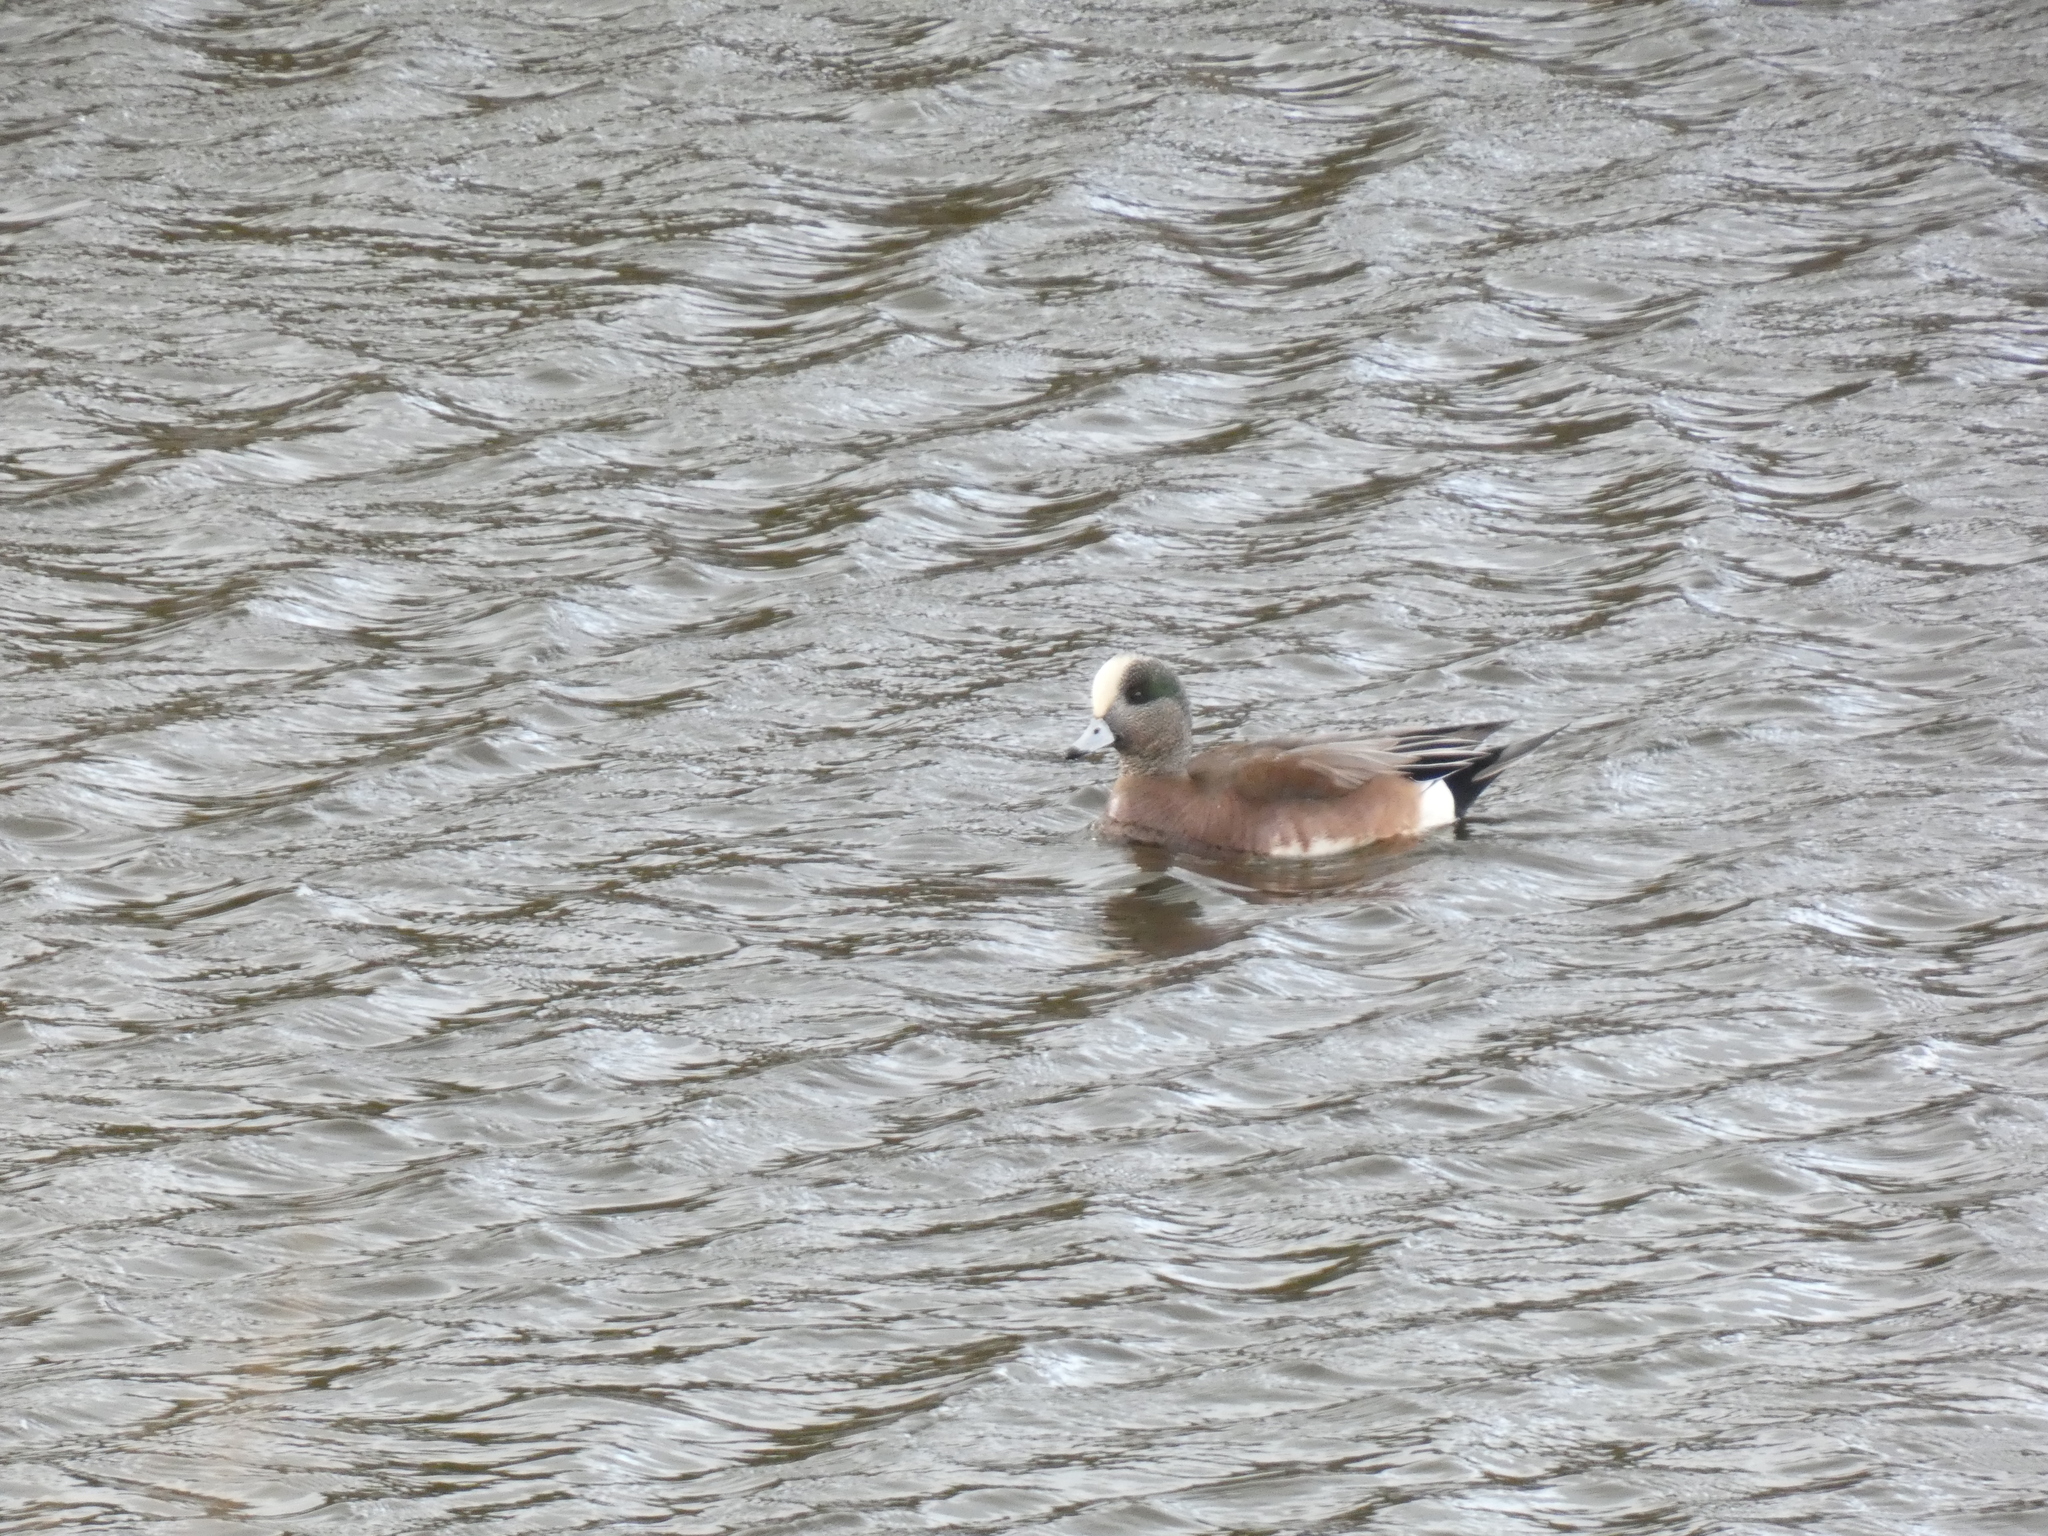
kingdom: Animalia
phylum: Chordata
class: Aves
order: Anseriformes
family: Anatidae
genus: Mareca
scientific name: Mareca americana
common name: American wigeon
